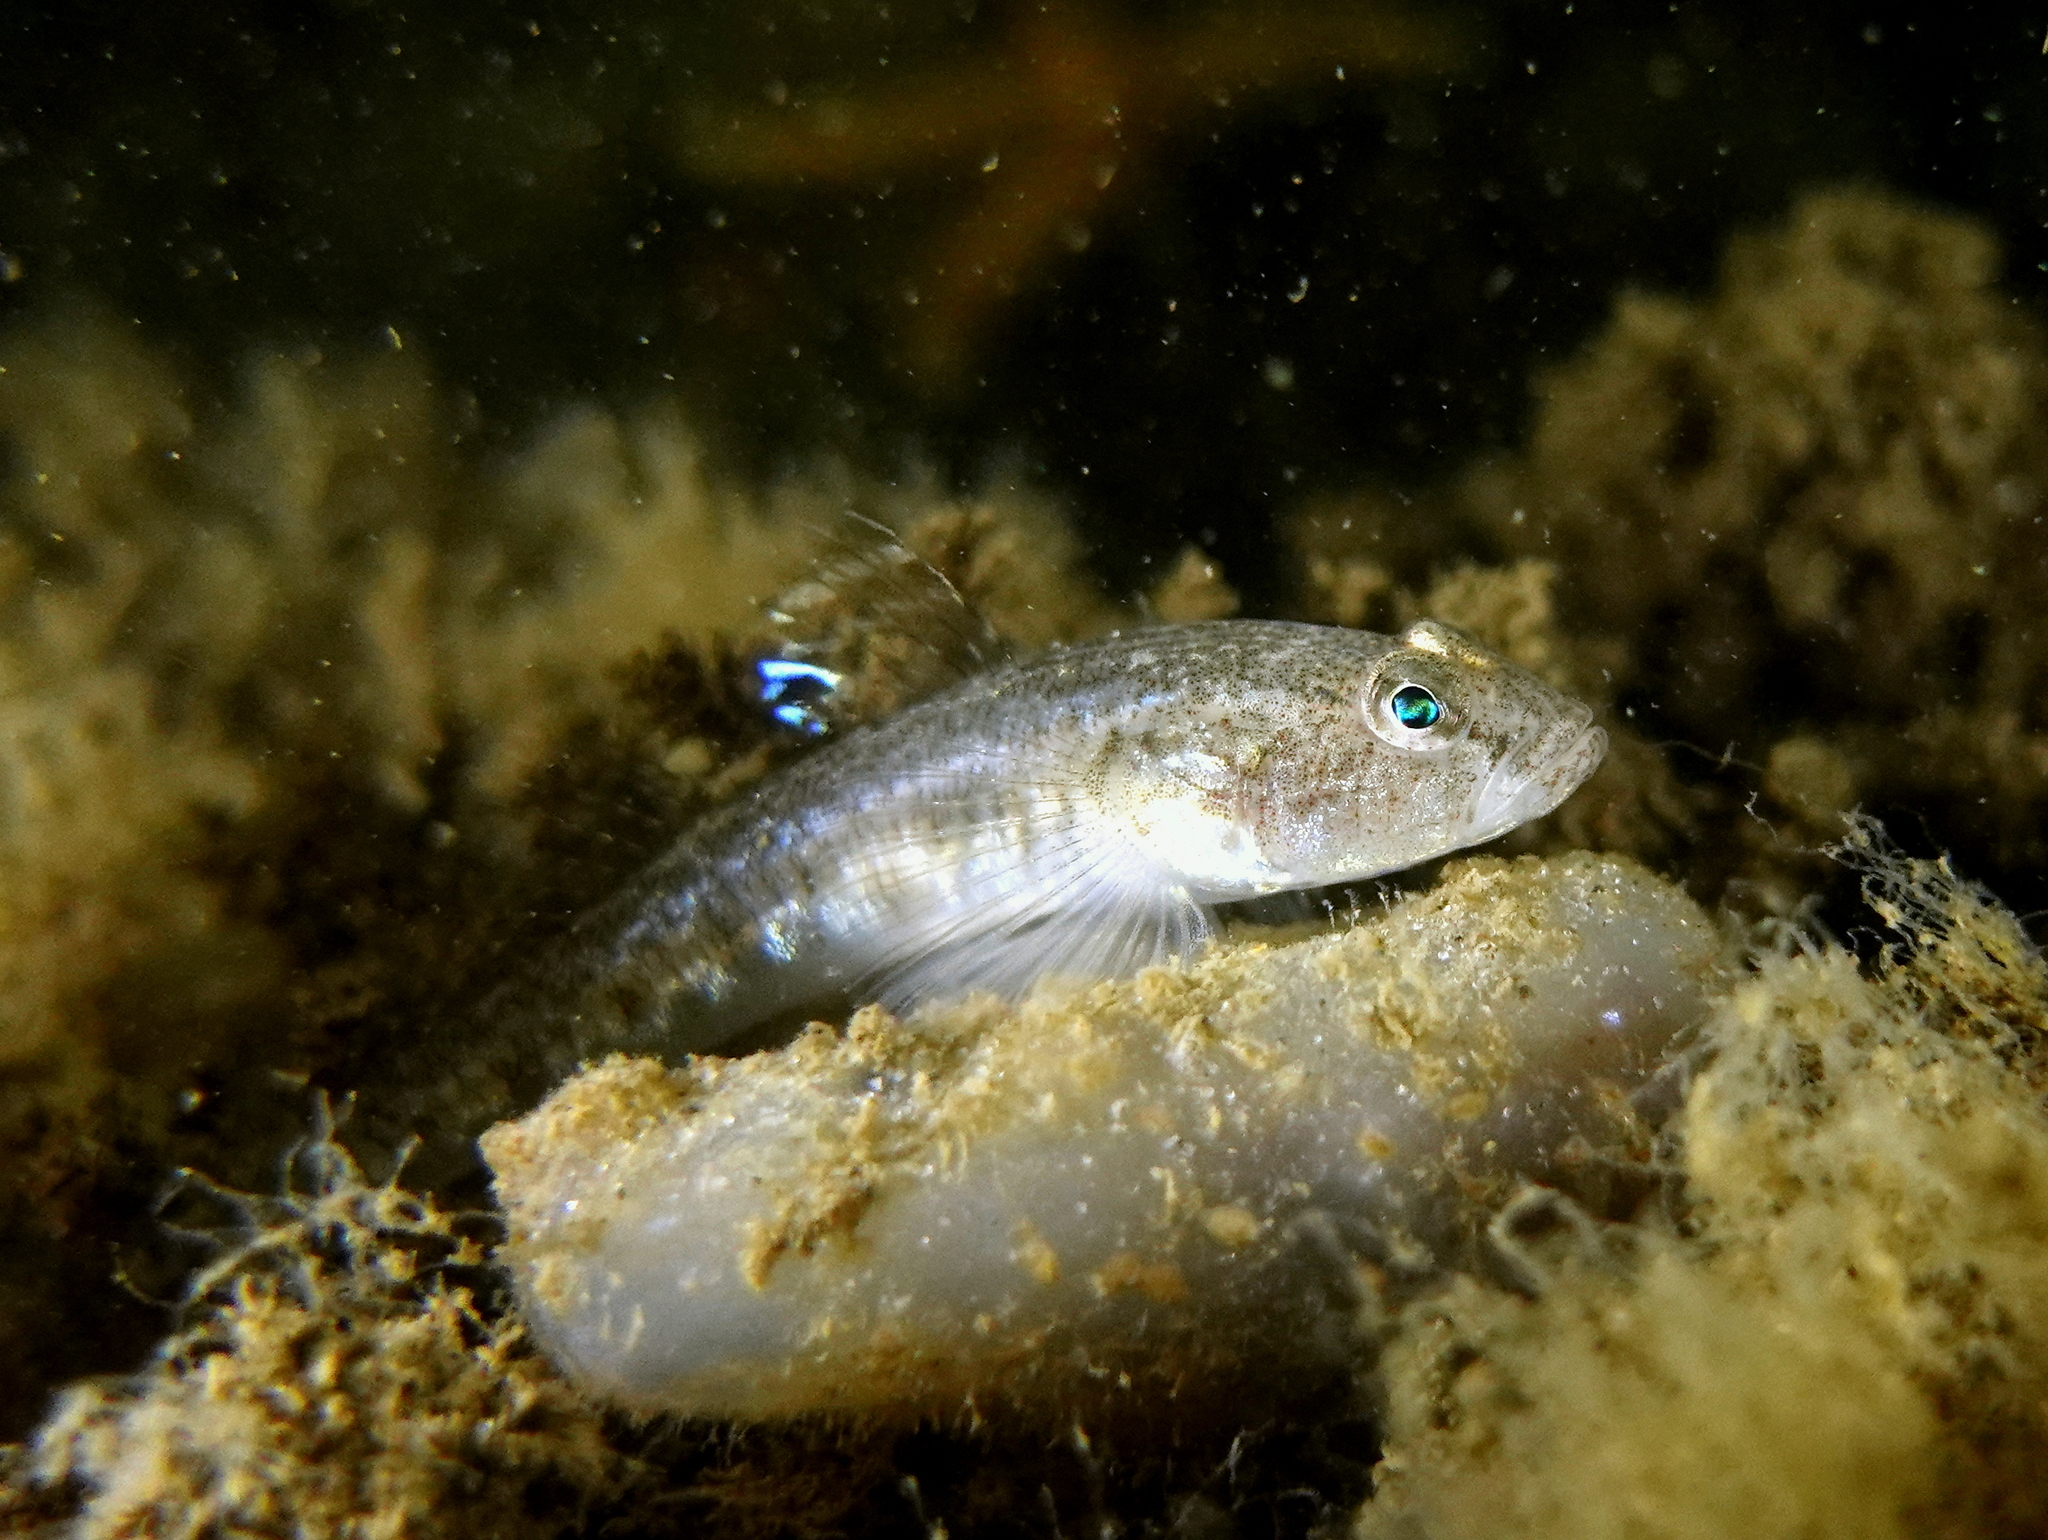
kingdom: Animalia
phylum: Chordata
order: Perciformes
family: Gobiidae
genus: Pomatoschistus
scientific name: Pomatoschistus minutus
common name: Sand goby
